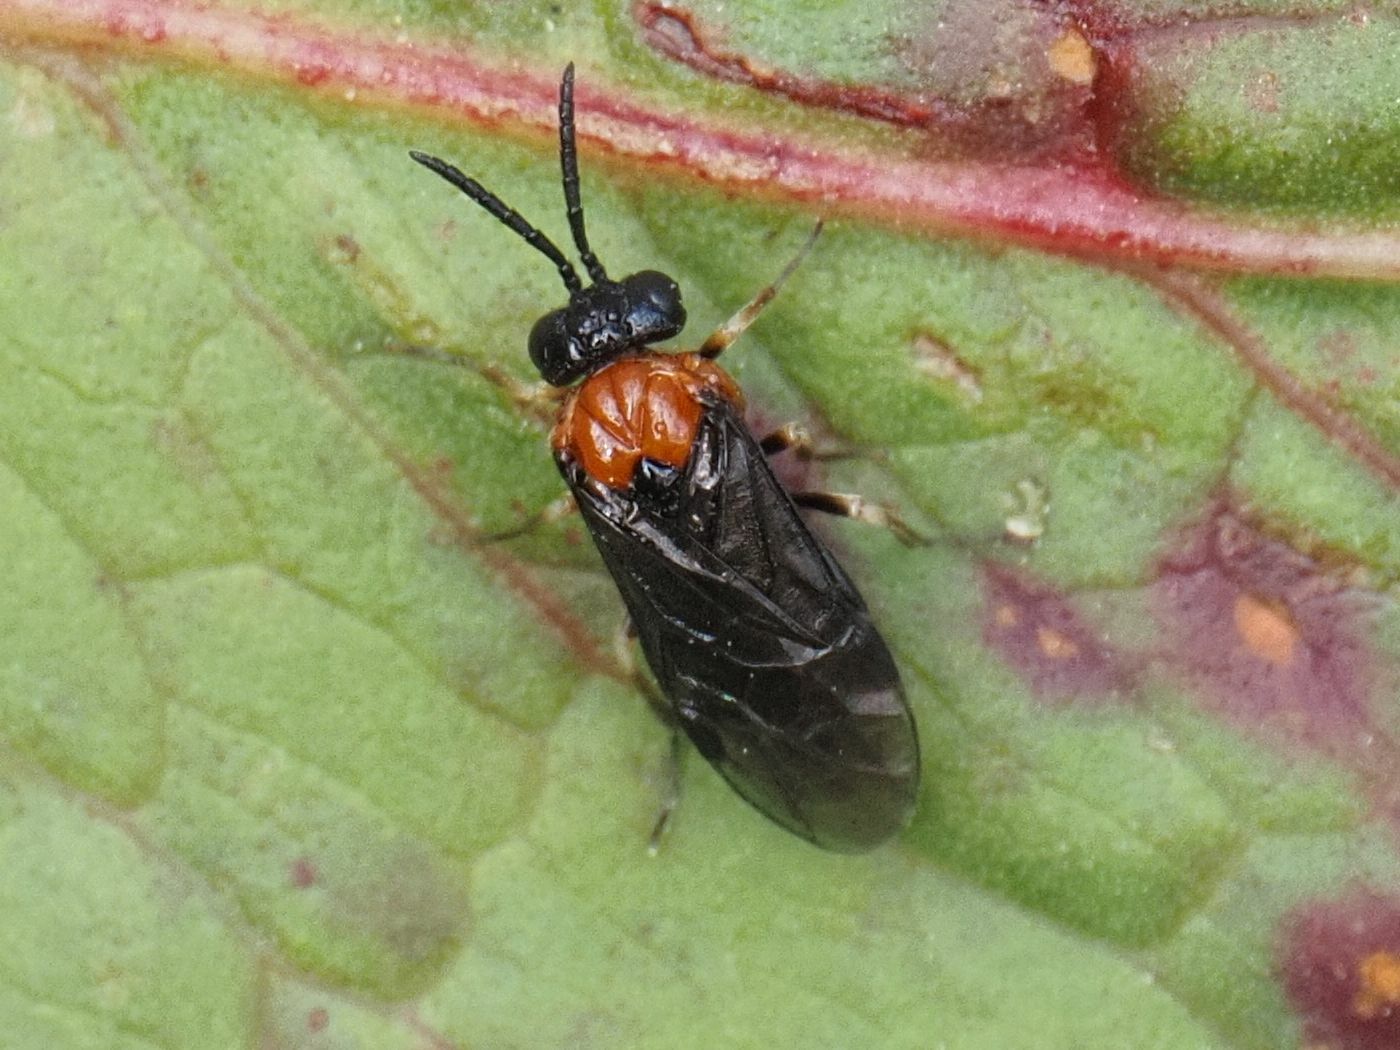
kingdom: Animalia
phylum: Arthropoda
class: Insecta
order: Hymenoptera
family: Tenthredinidae
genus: Eutomostethus
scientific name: Eutomostethus ephippium
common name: Tenthredid wasp
